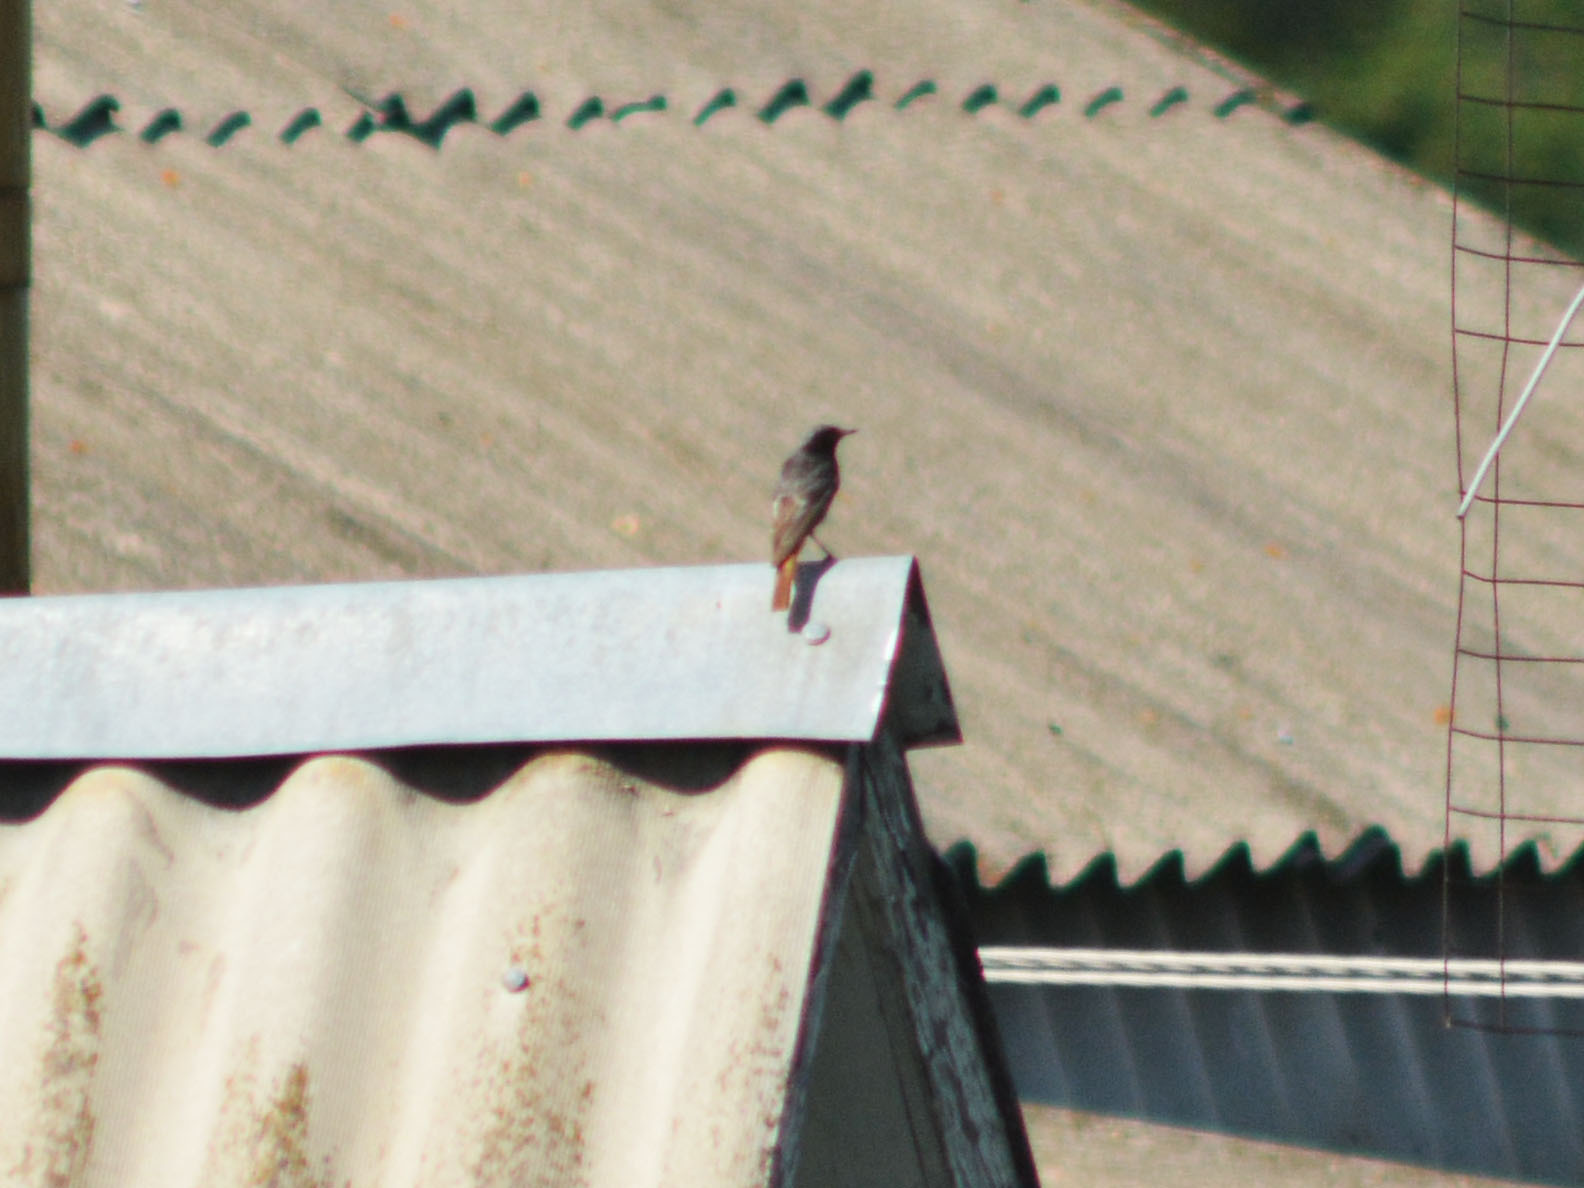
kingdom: Animalia
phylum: Chordata
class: Aves
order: Passeriformes
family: Muscicapidae
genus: Phoenicurus
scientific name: Phoenicurus ochruros
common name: Black redstart
